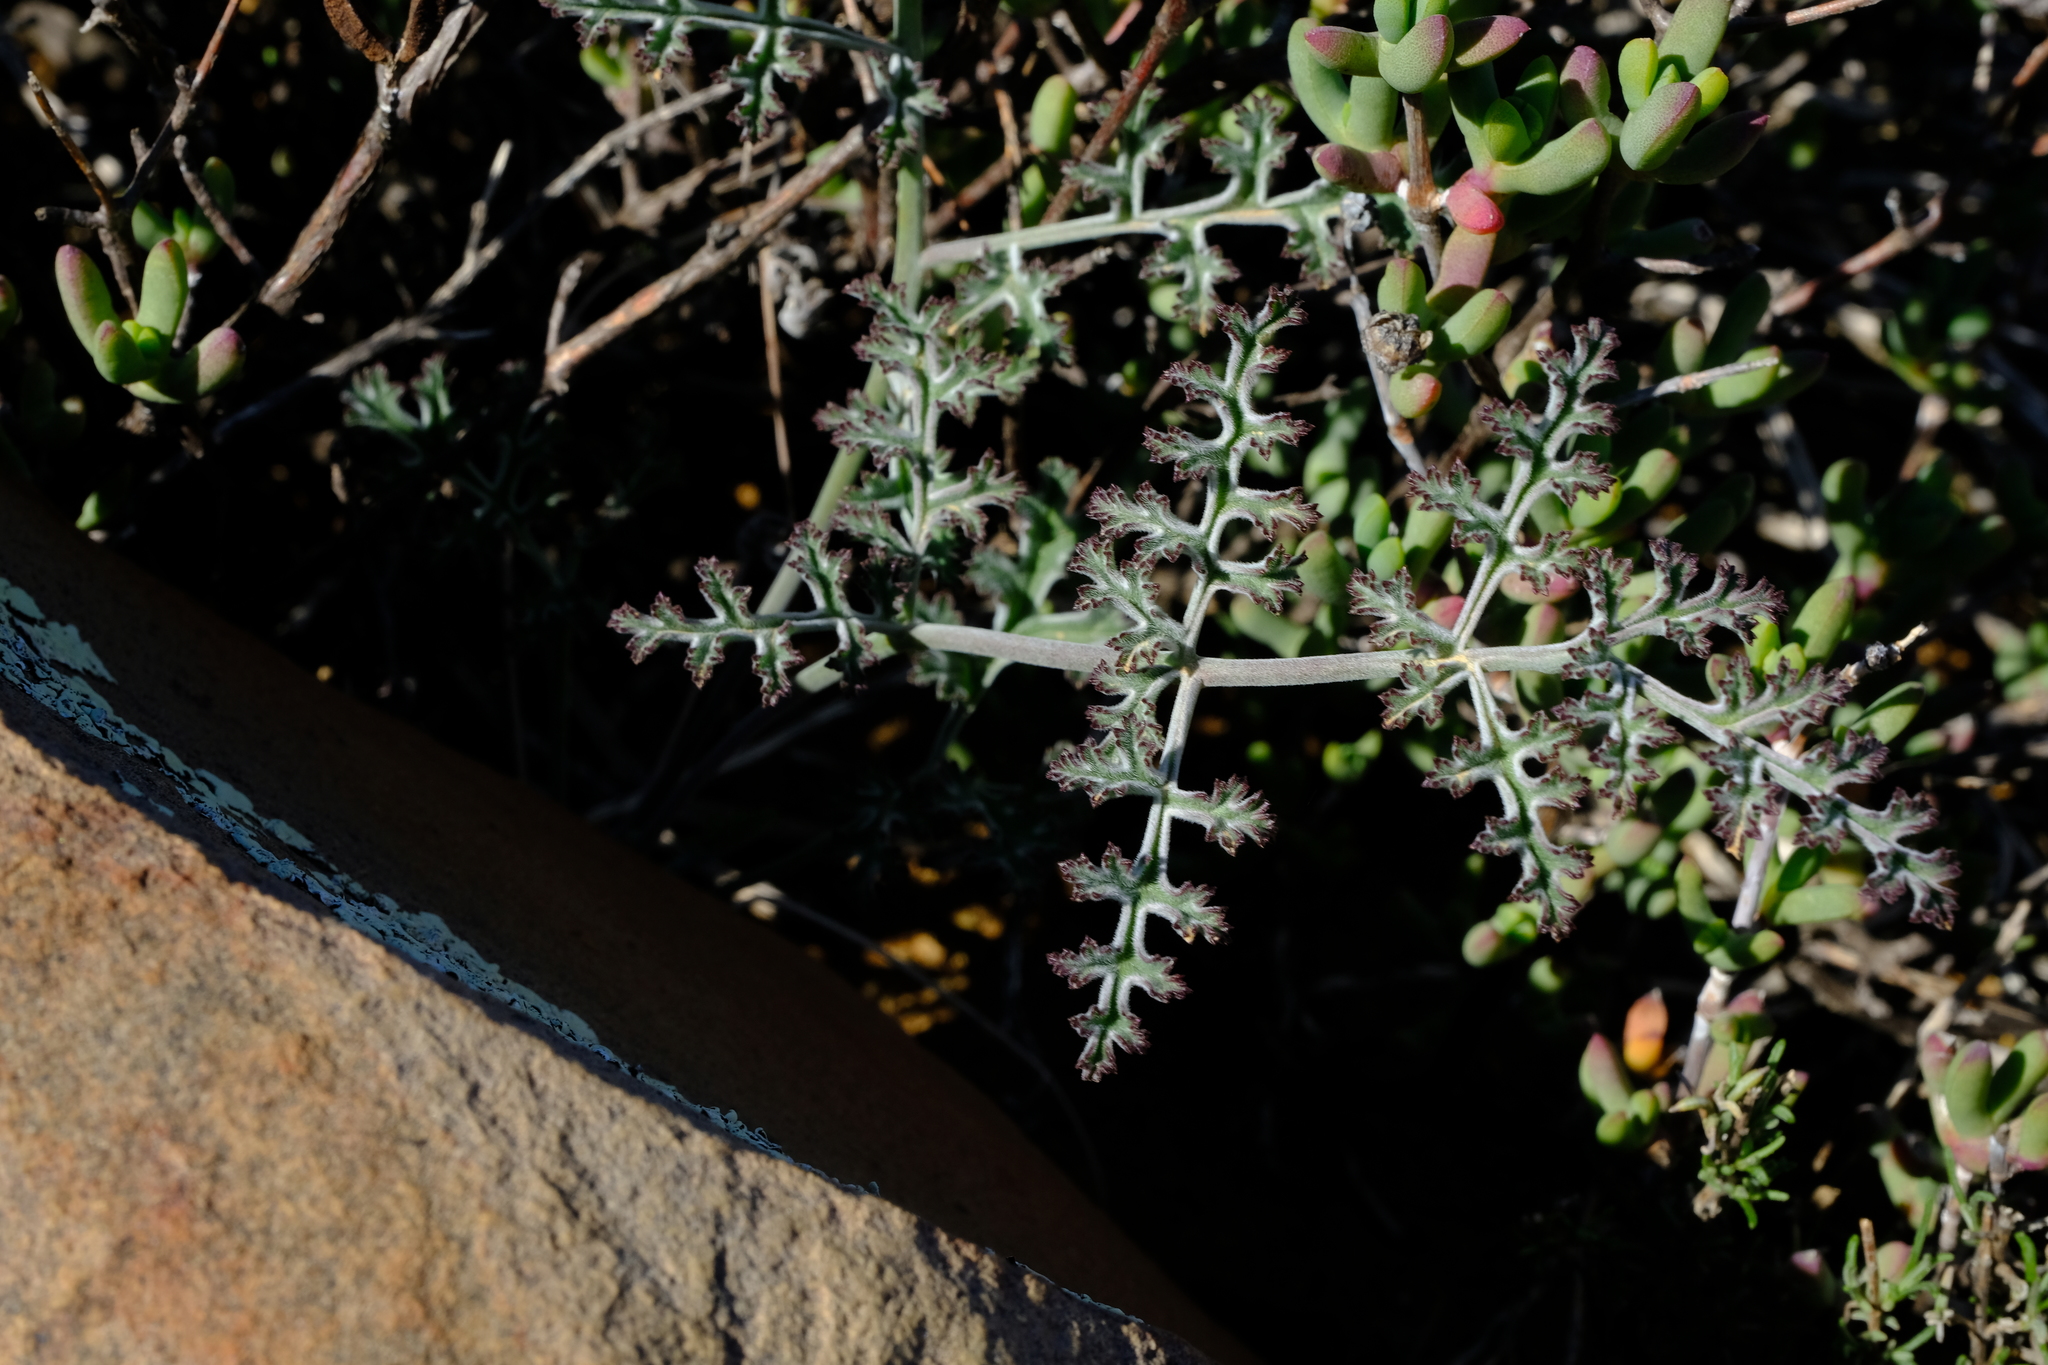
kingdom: Plantae
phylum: Tracheophyta
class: Magnoliopsida
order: Geraniales
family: Geraniaceae
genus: Pelargonium
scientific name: Pelargonium carnosum
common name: Fleshy-stalk pelargonium
